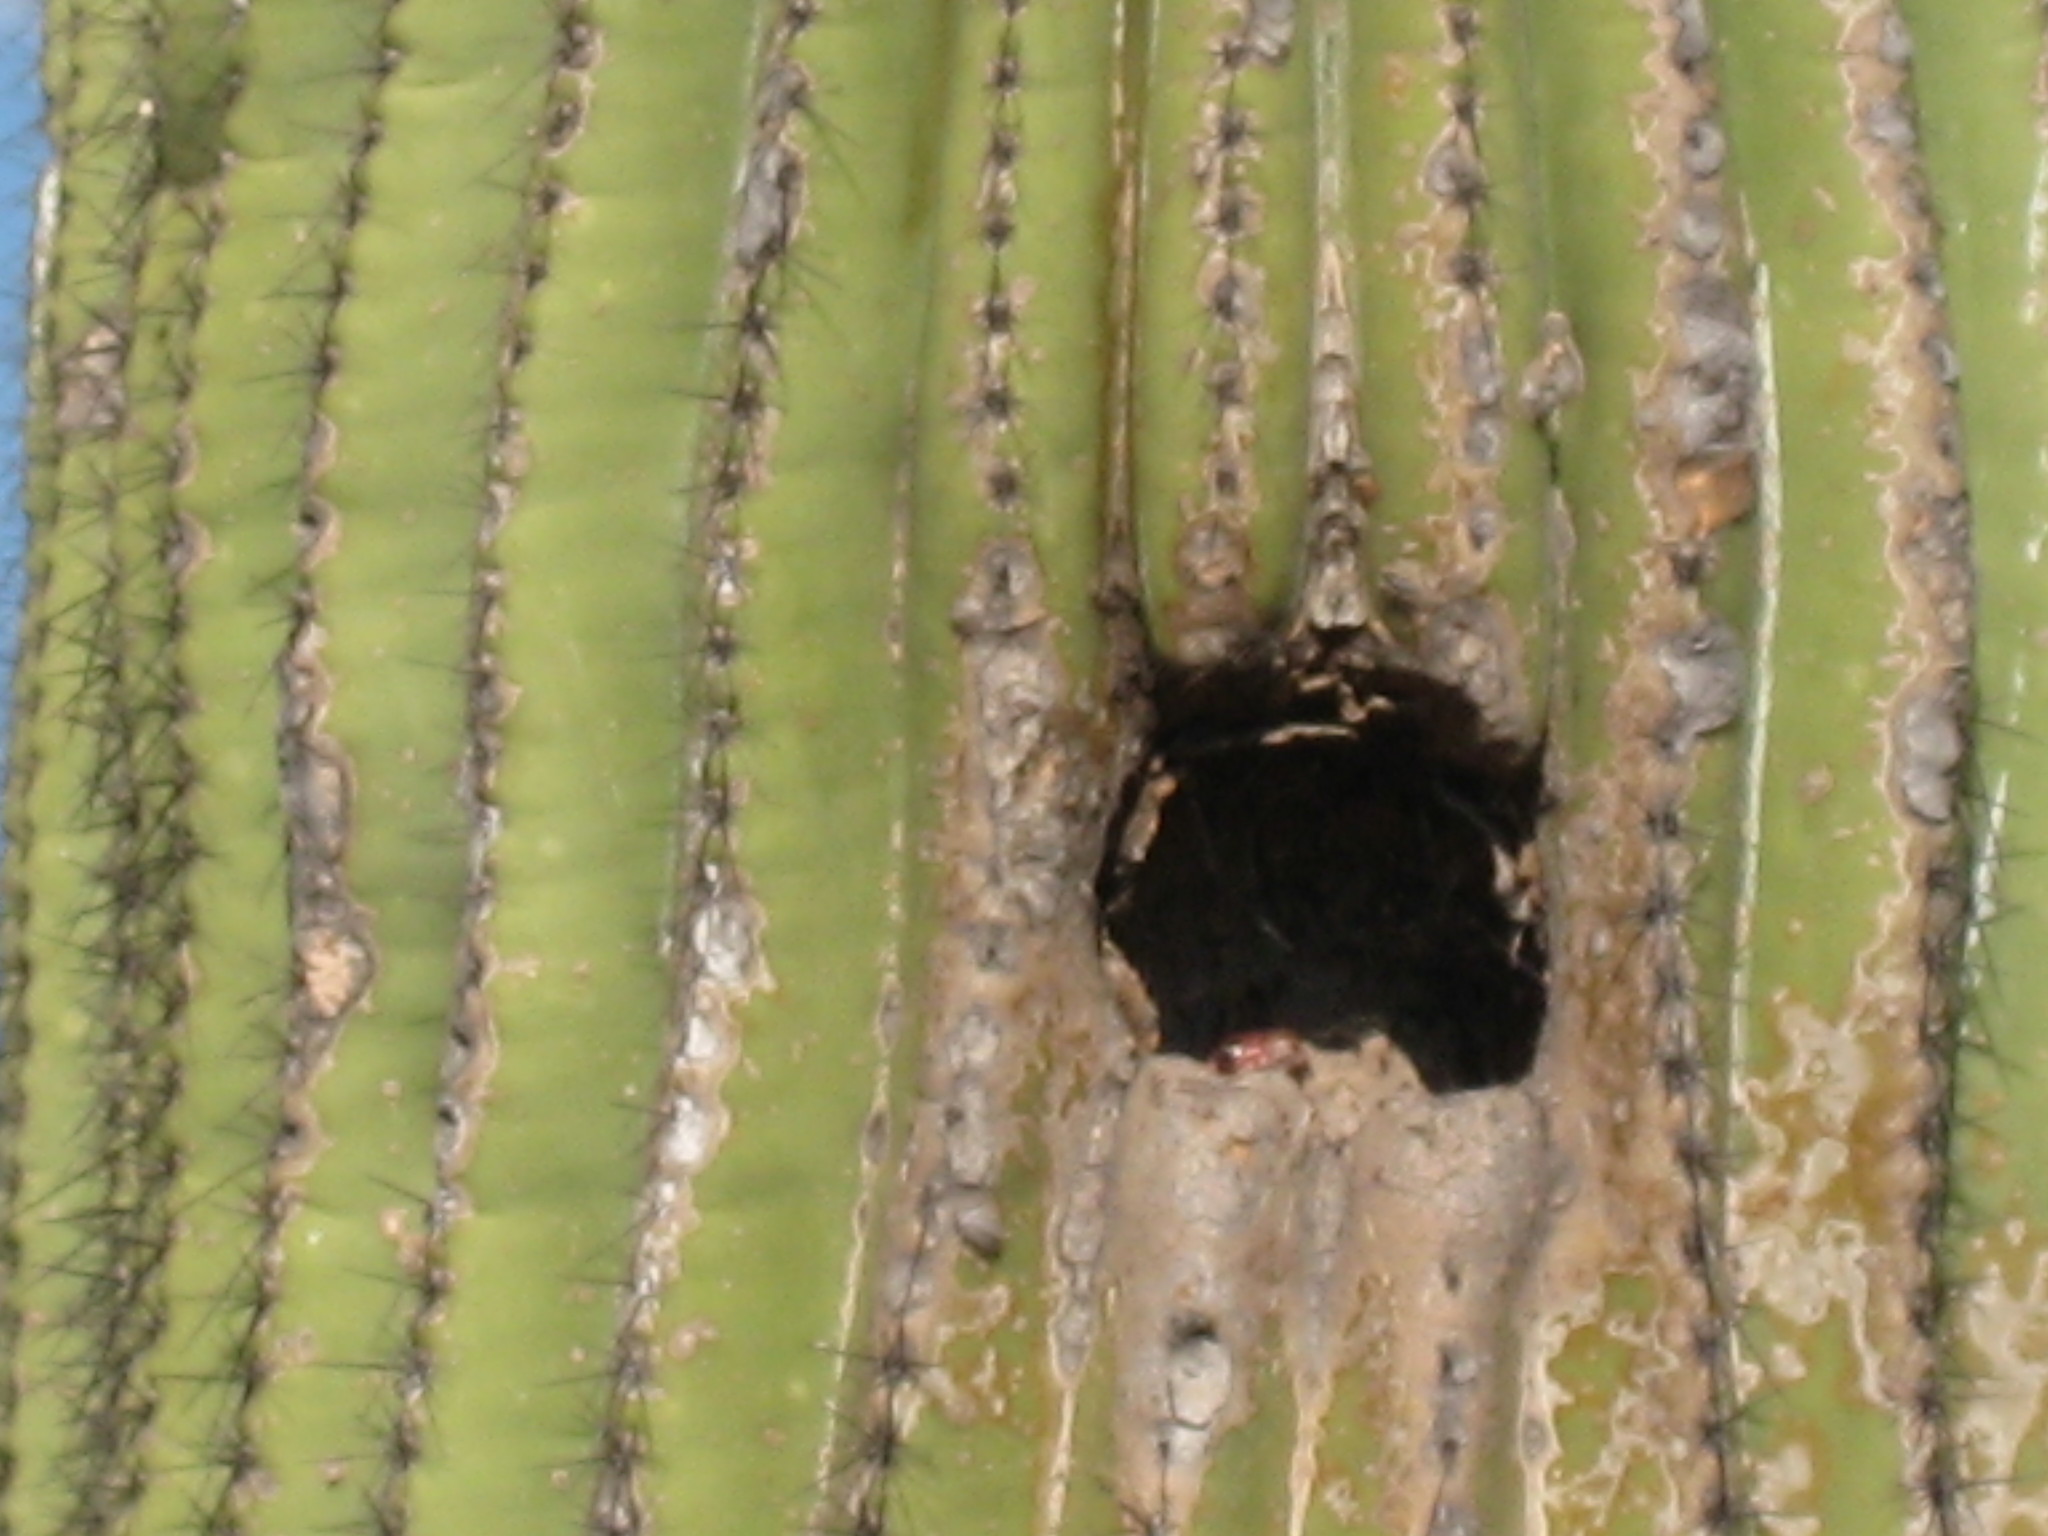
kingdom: Animalia
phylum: Chordata
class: Squamata
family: Colubridae
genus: Masticophis
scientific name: Masticophis flagellum
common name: Coachwhip
